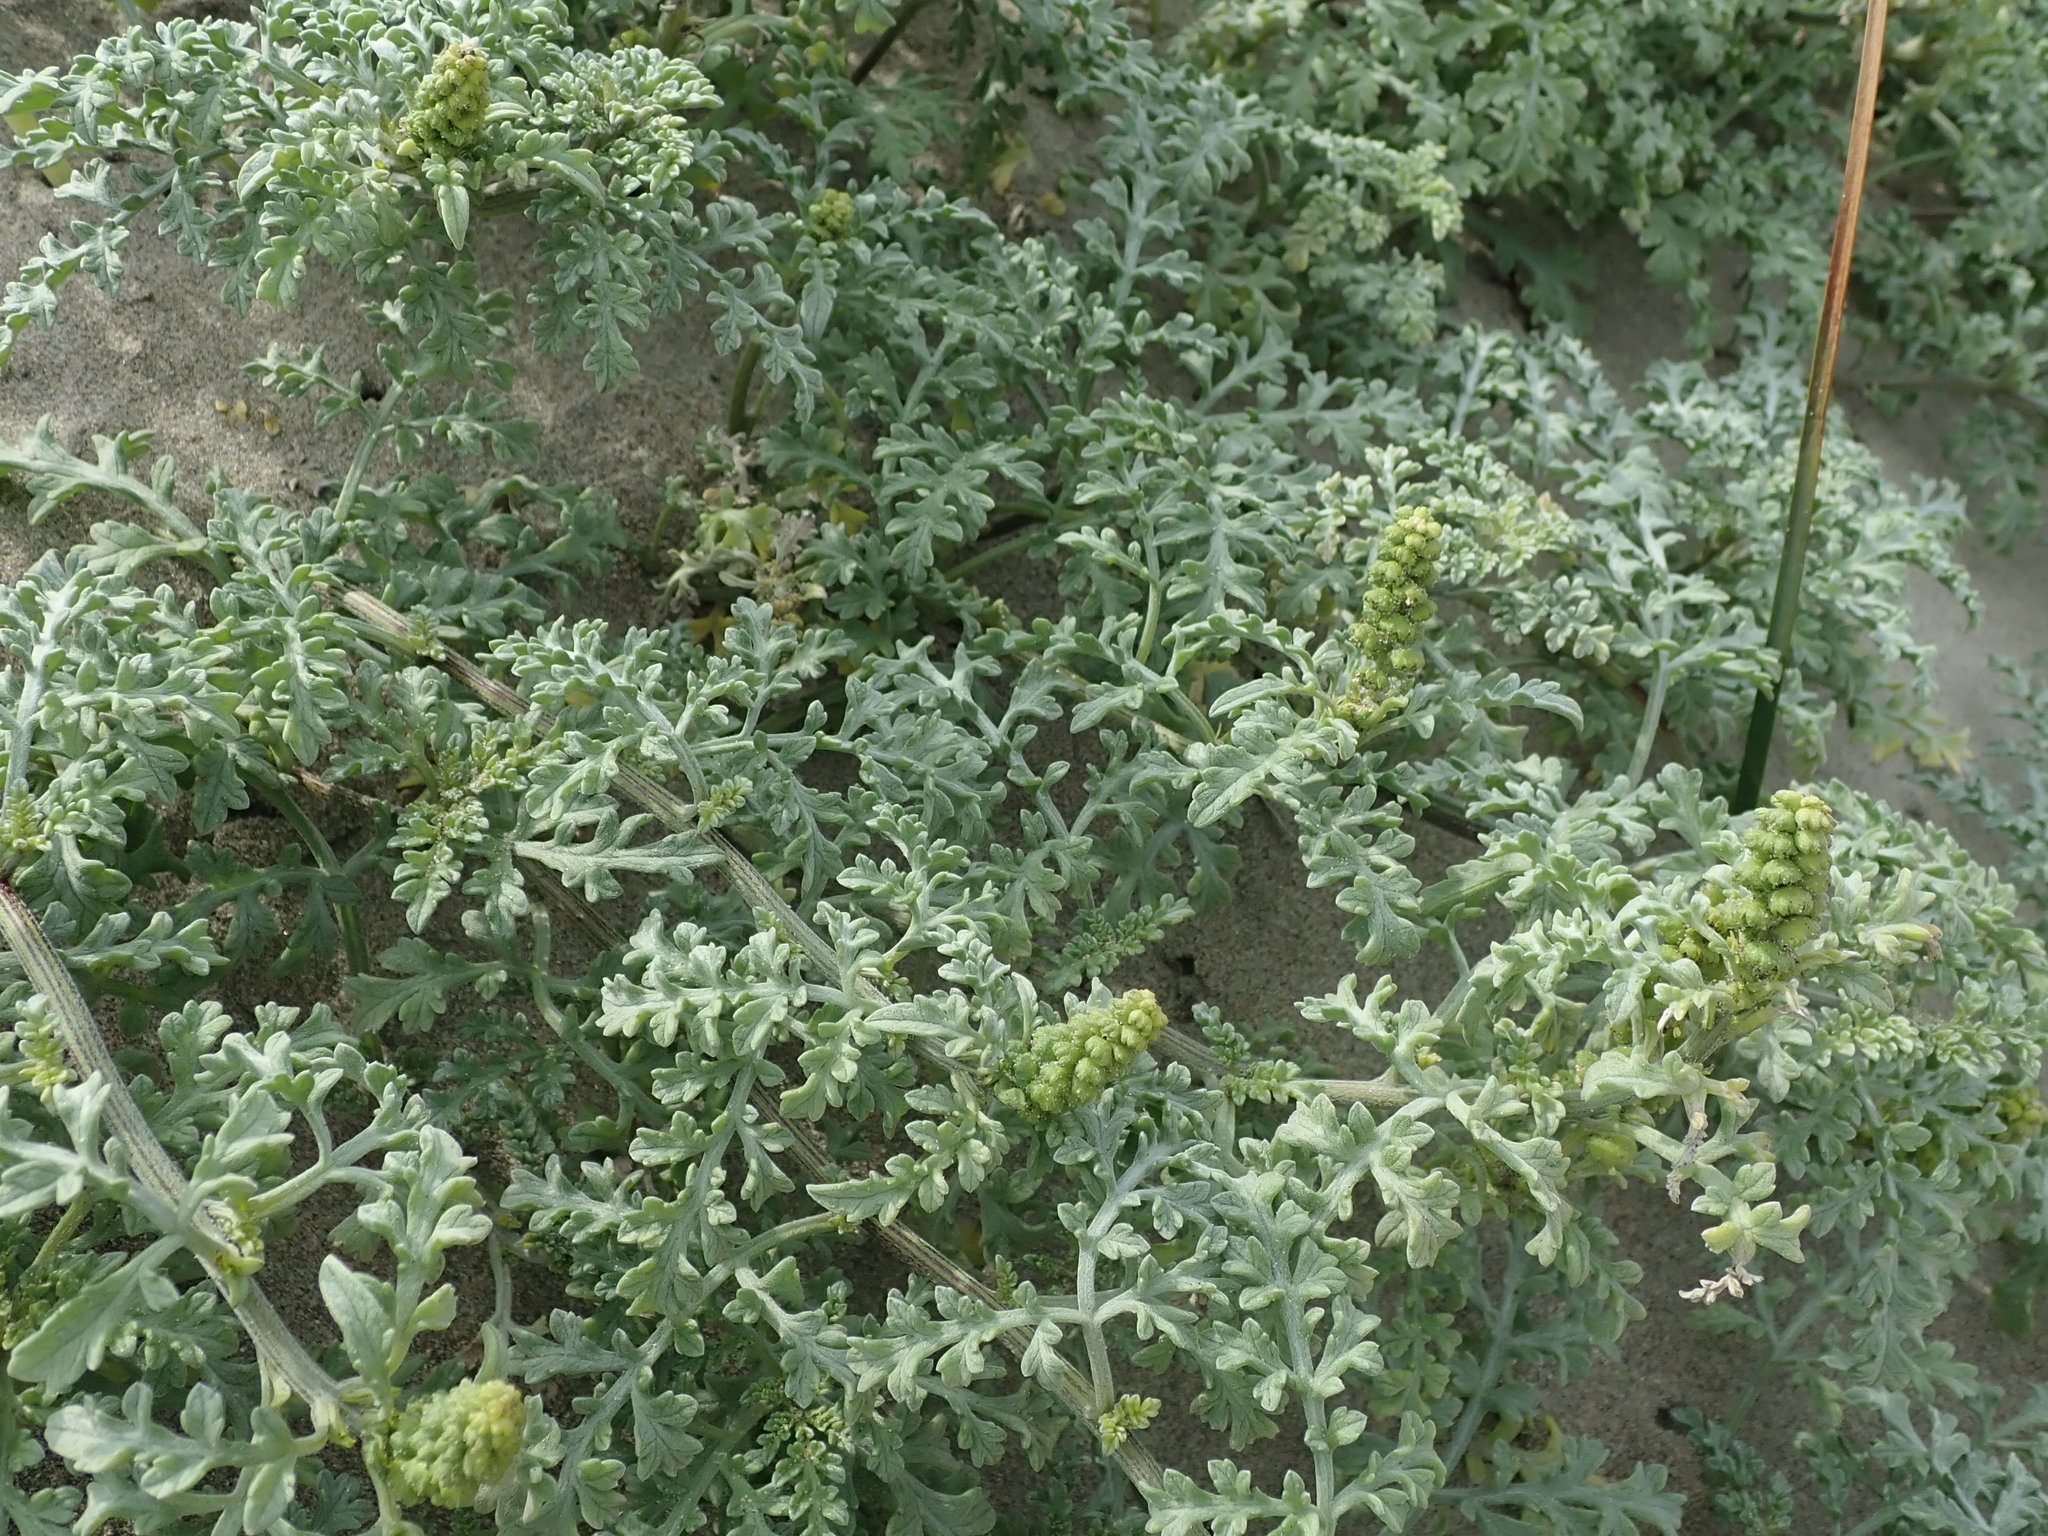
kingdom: Plantae
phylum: Tracheophyta
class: Magnoliopsida
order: Asterales
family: Asteraceae
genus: Ambrosia
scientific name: Ambrosia chamissonis
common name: Beachbur
